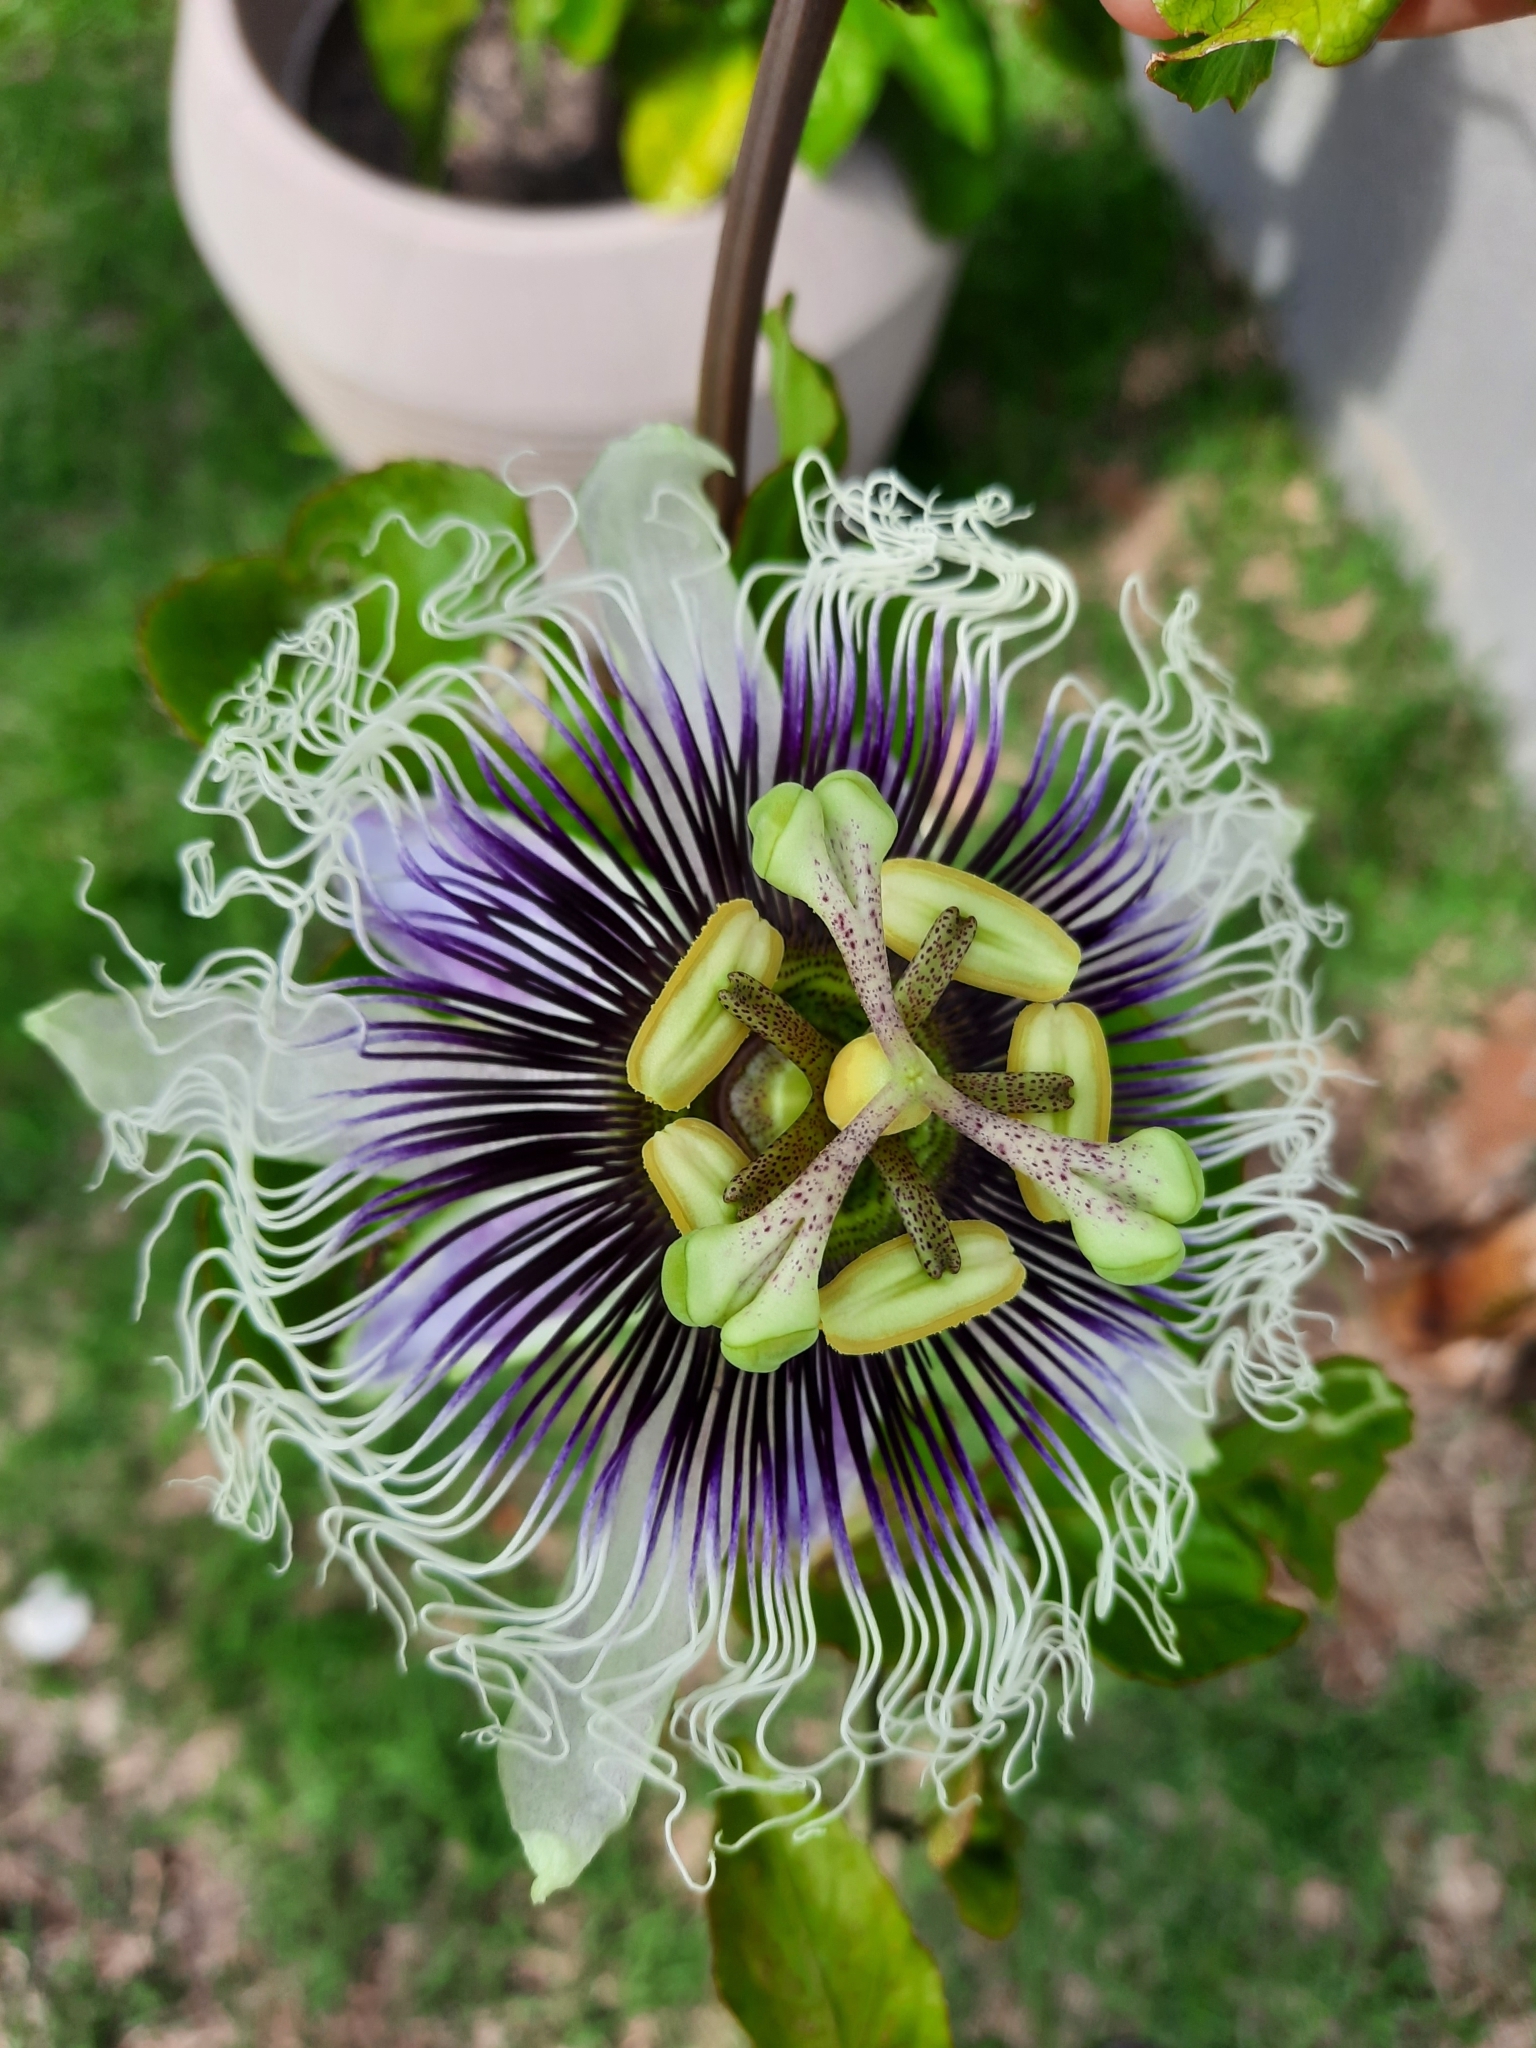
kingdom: Plantae
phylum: Tracheophyta
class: Magnoliopsida
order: Malpighiales
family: Passifloraceae
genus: Passiflora
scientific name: Passiflora edulis
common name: Purple granadilla
